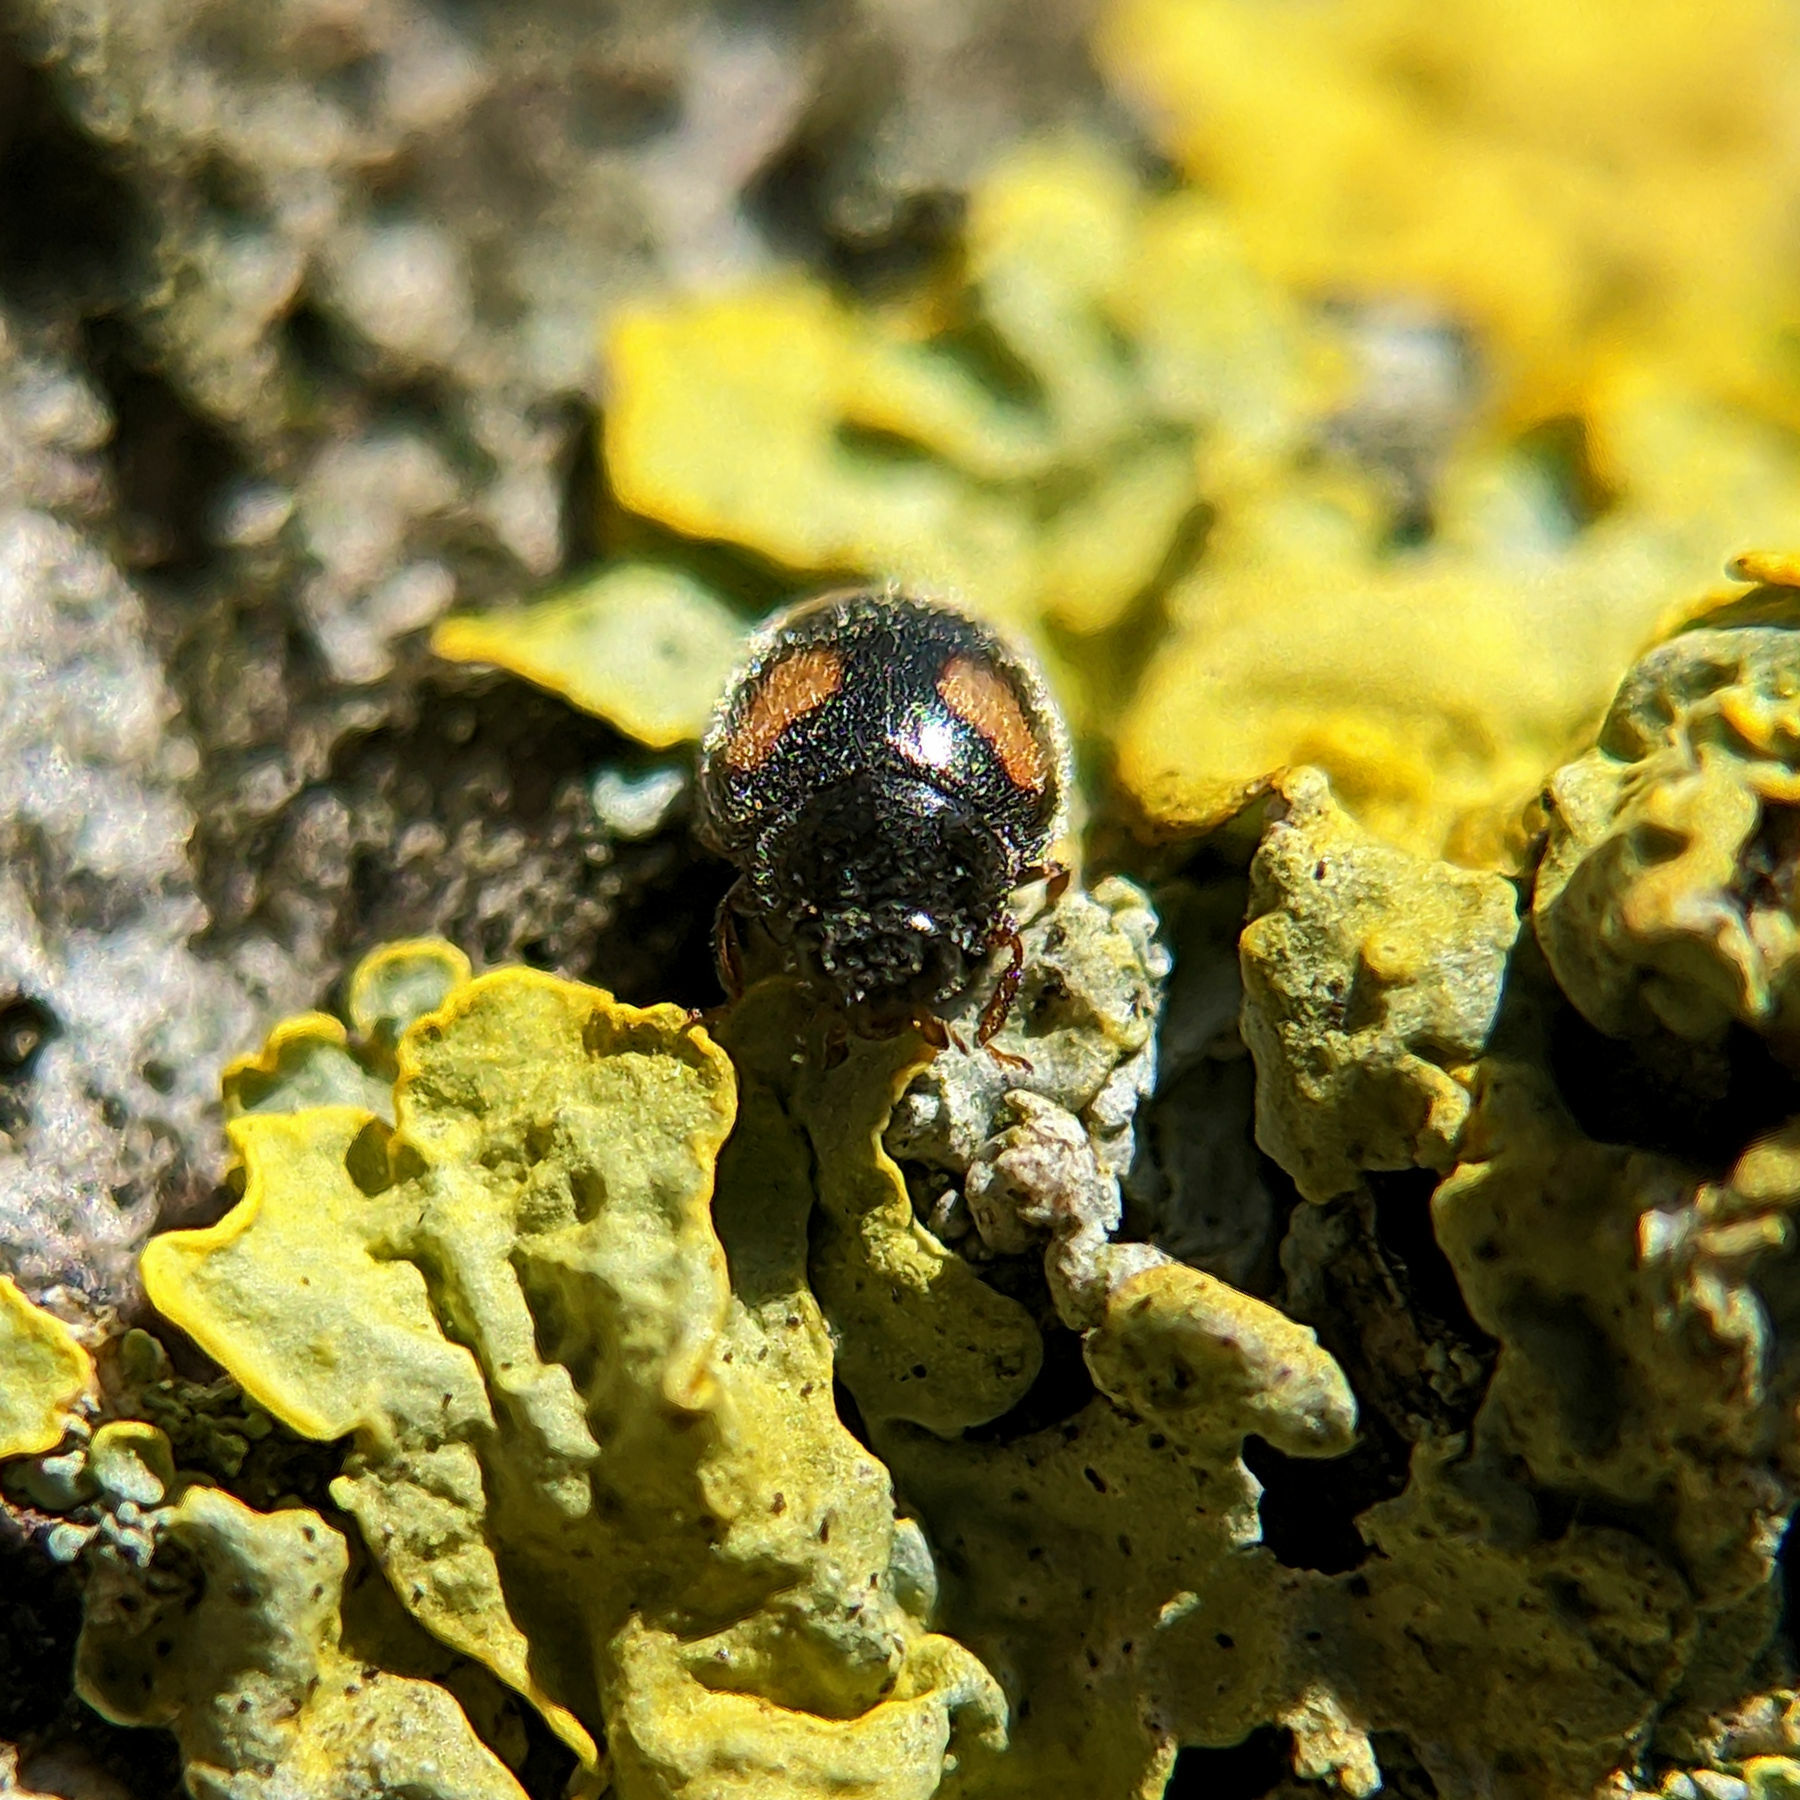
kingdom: Animalia
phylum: Arthropoda
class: Insecta
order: Coleoptera
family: Coccinellidae
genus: Nephus
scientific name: Nephus quadrimaculatus
